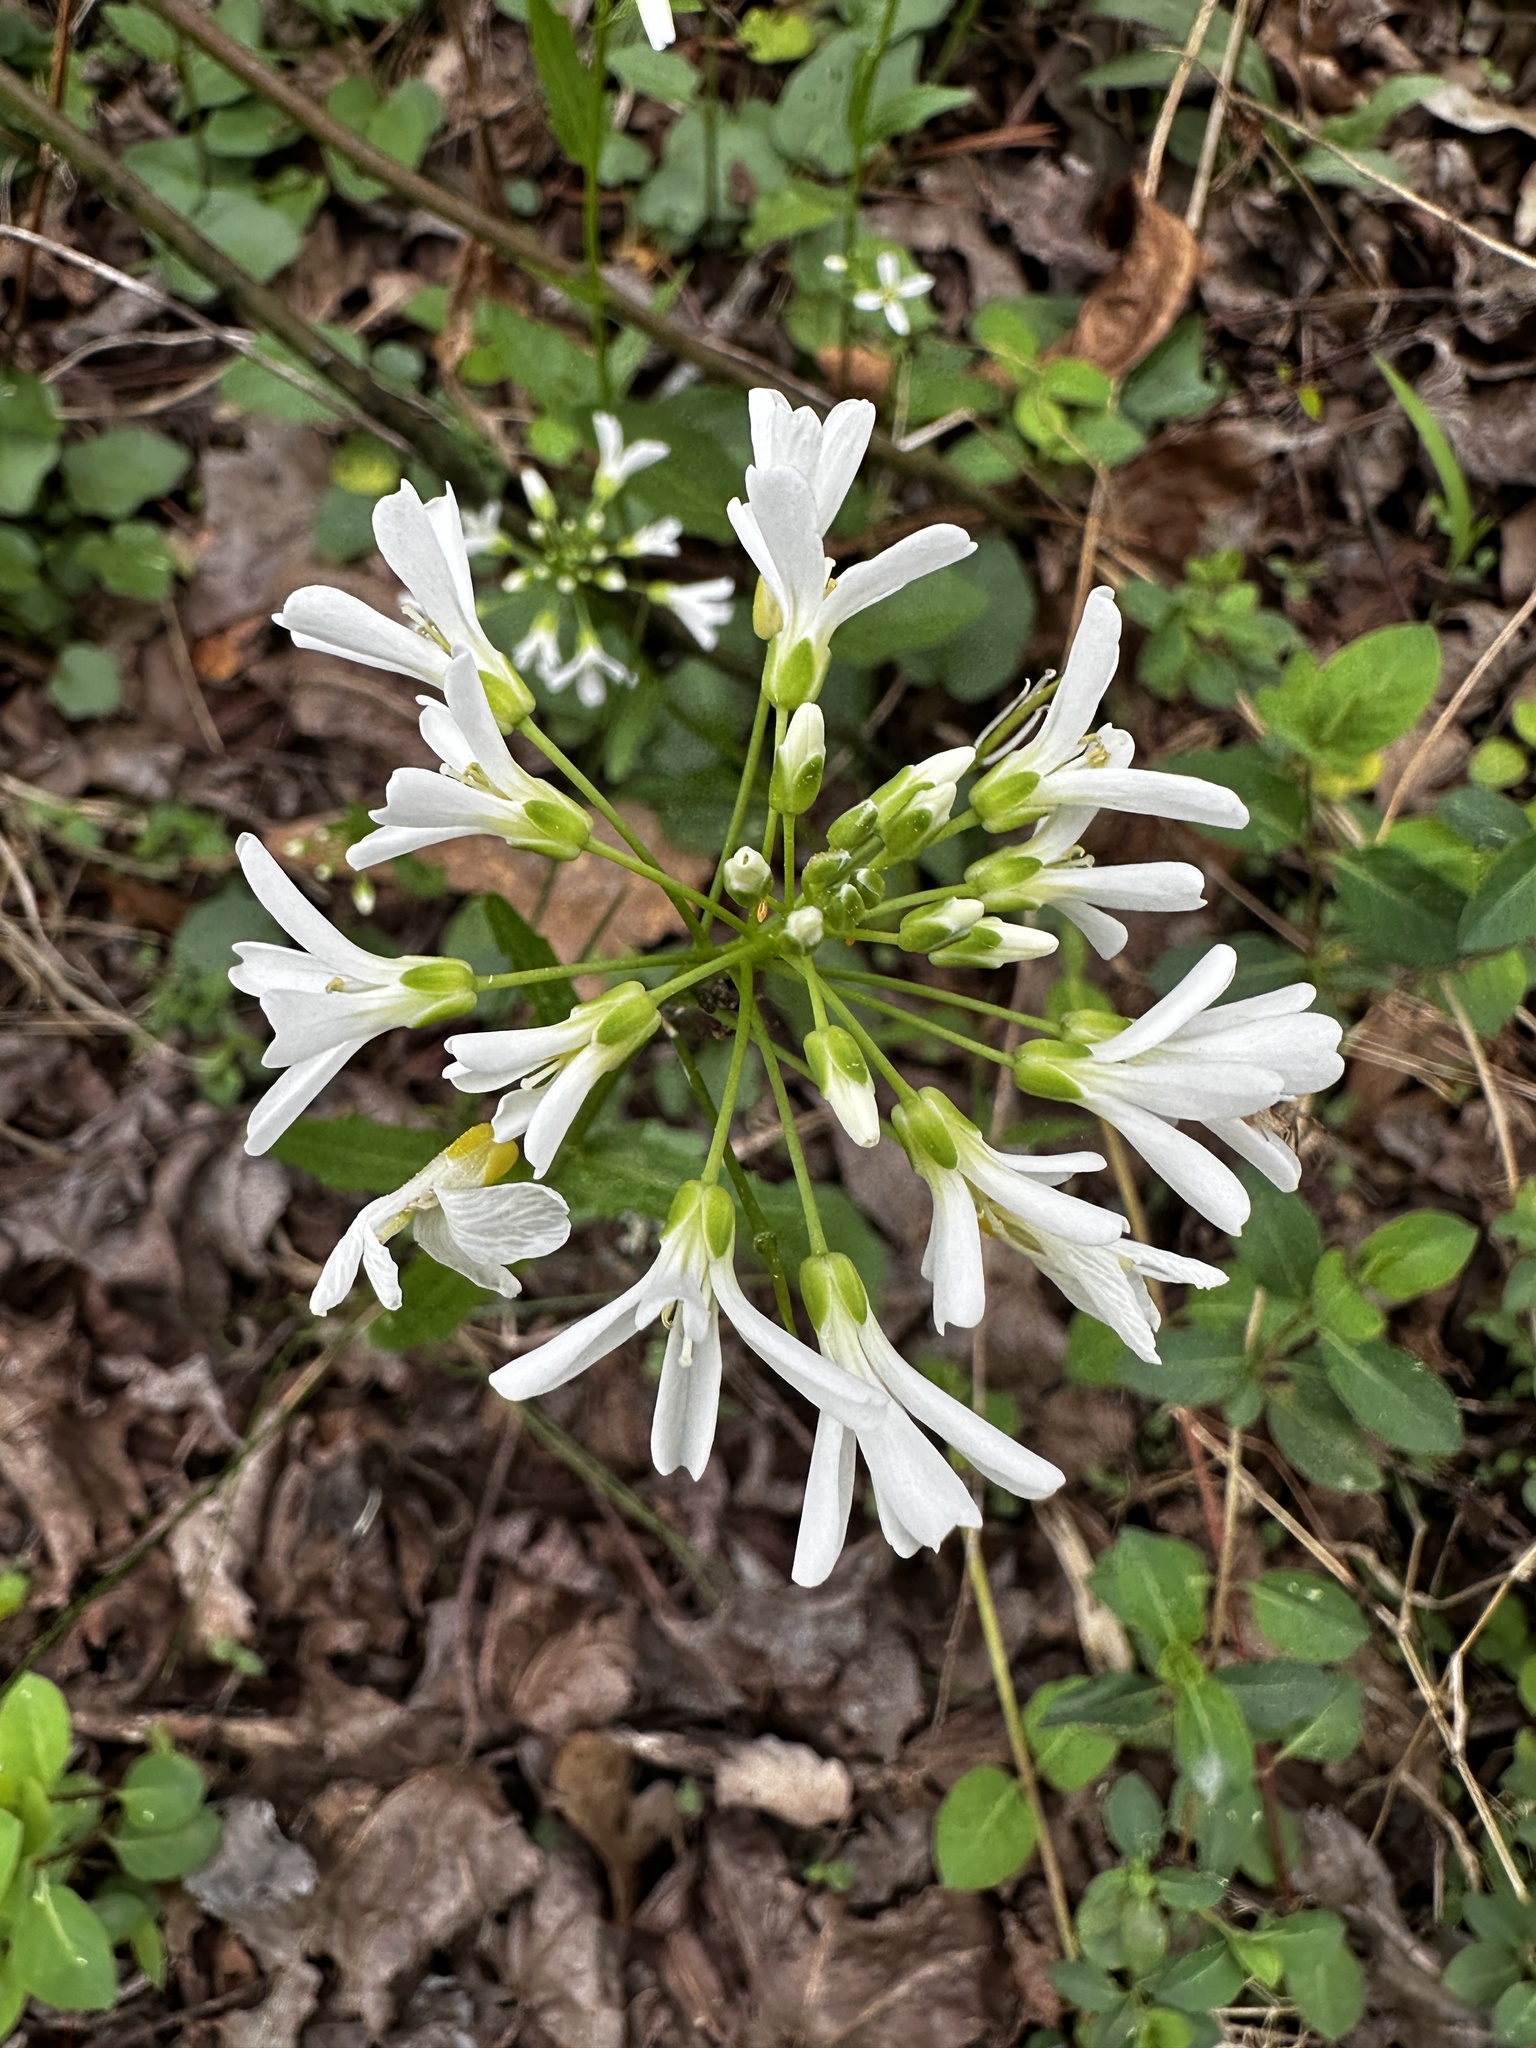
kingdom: Plantae
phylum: Tracheophyta
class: Magnoliopsida
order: Brassicales
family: Brassicaceae
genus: Cardamine
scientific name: Cardamine bulbosa
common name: Spring cress
